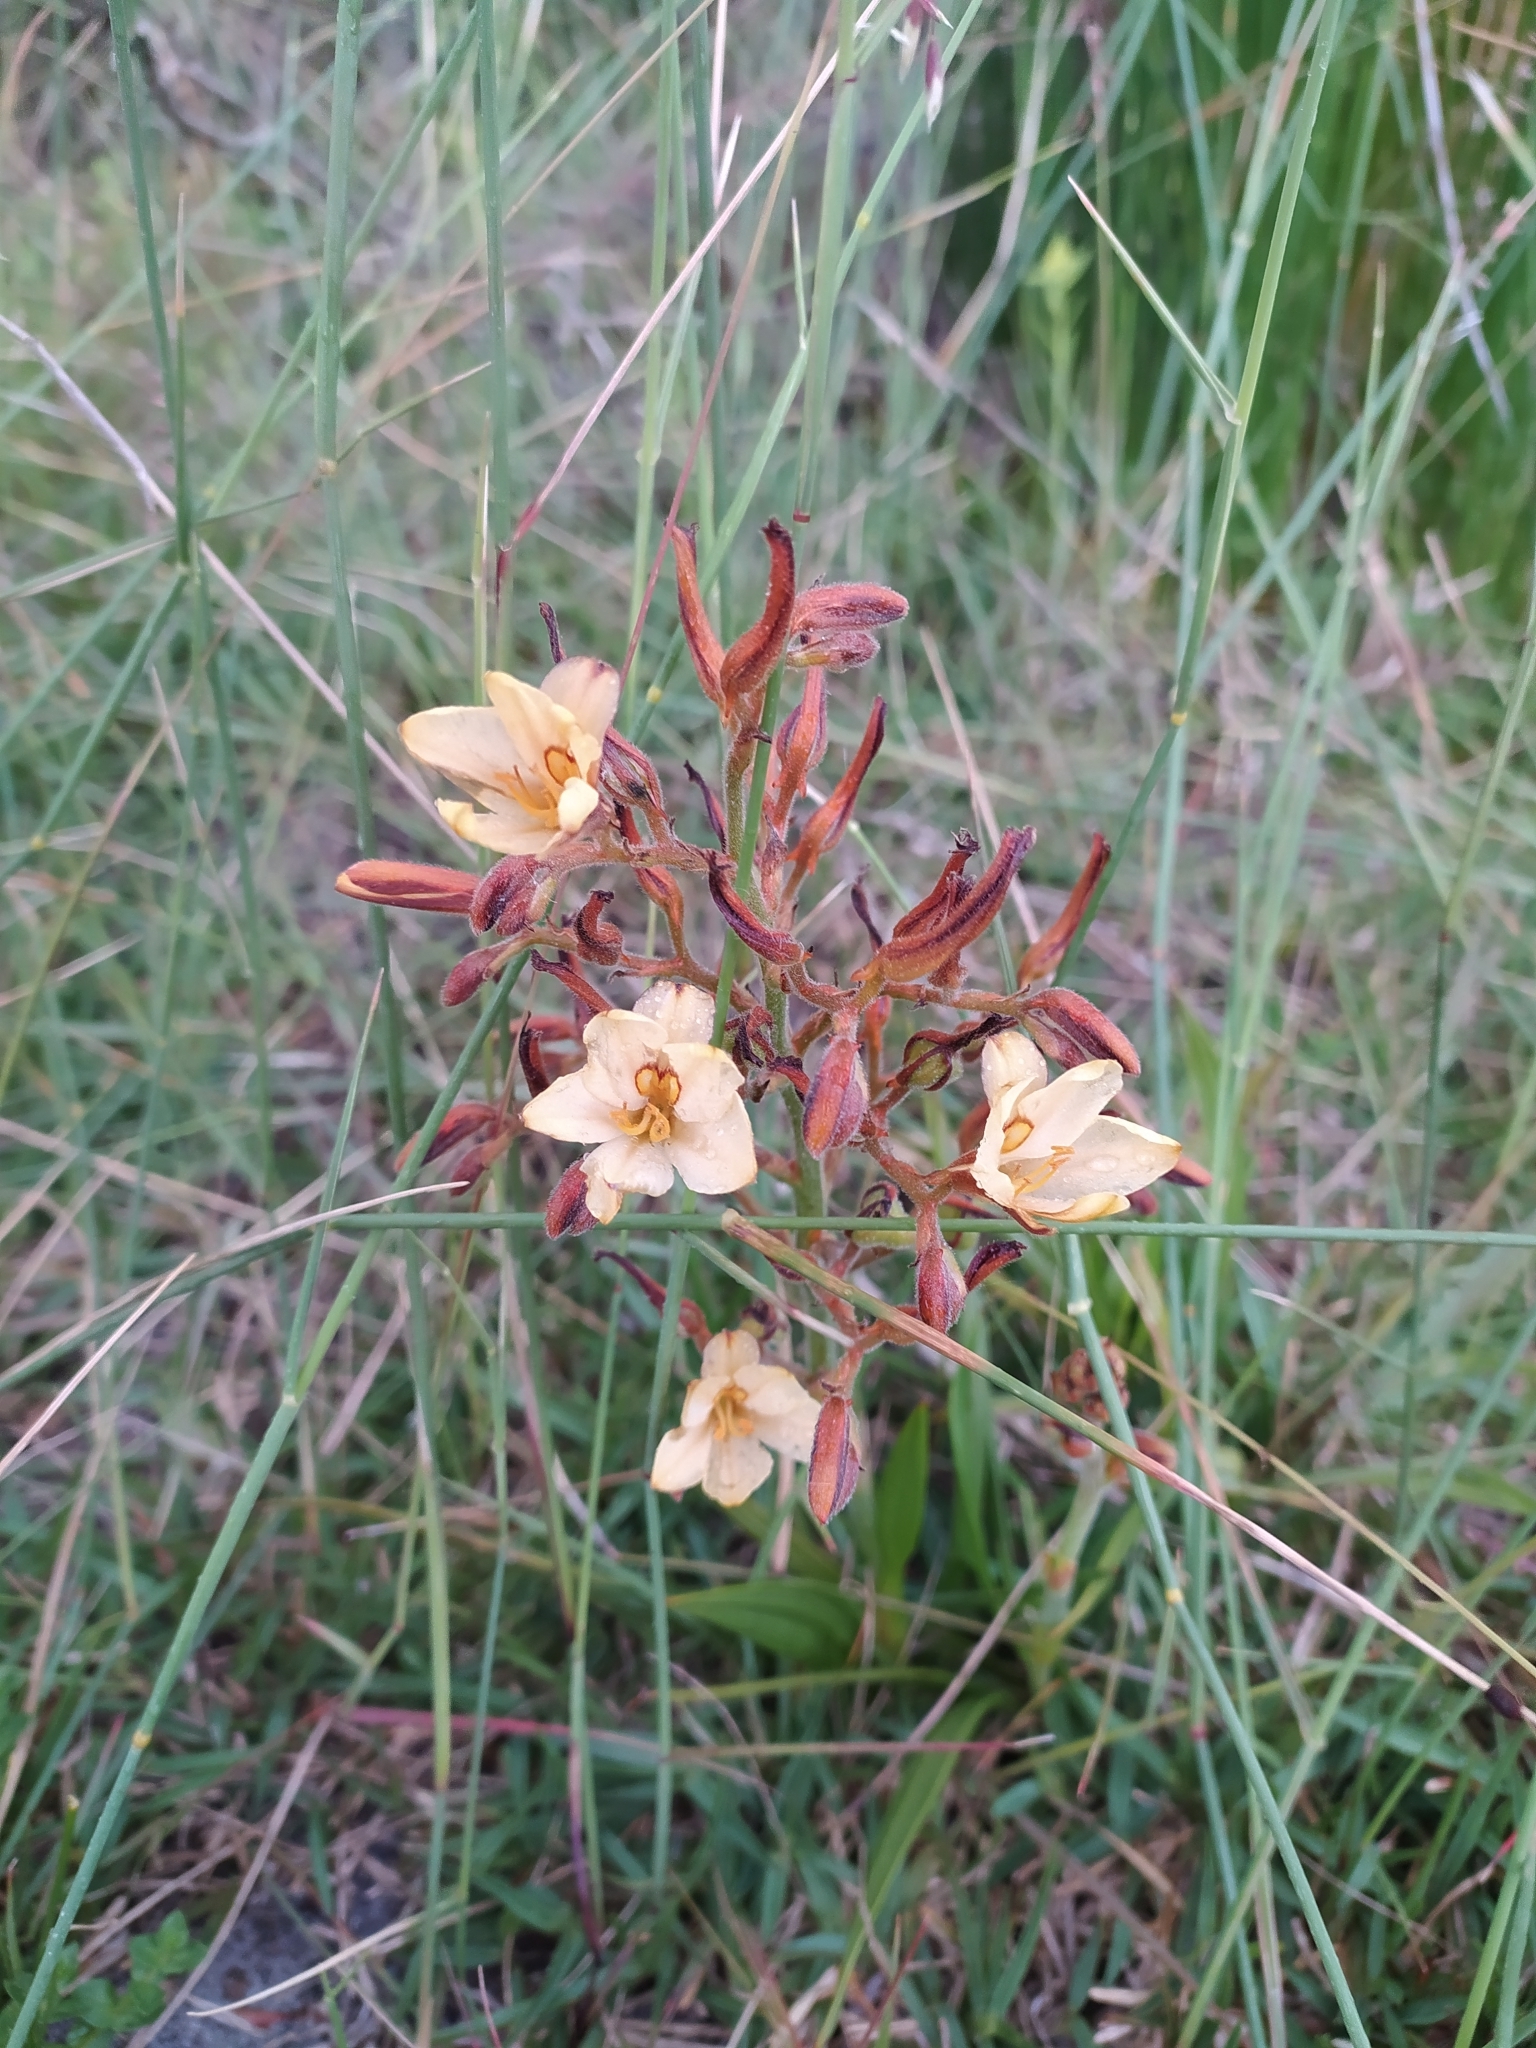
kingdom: Plantae
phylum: Tracheophyta
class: Liliopsida
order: Commelinales
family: Haemodoraceae
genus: Wachendorfia
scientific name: Wachendorfia paniculata
